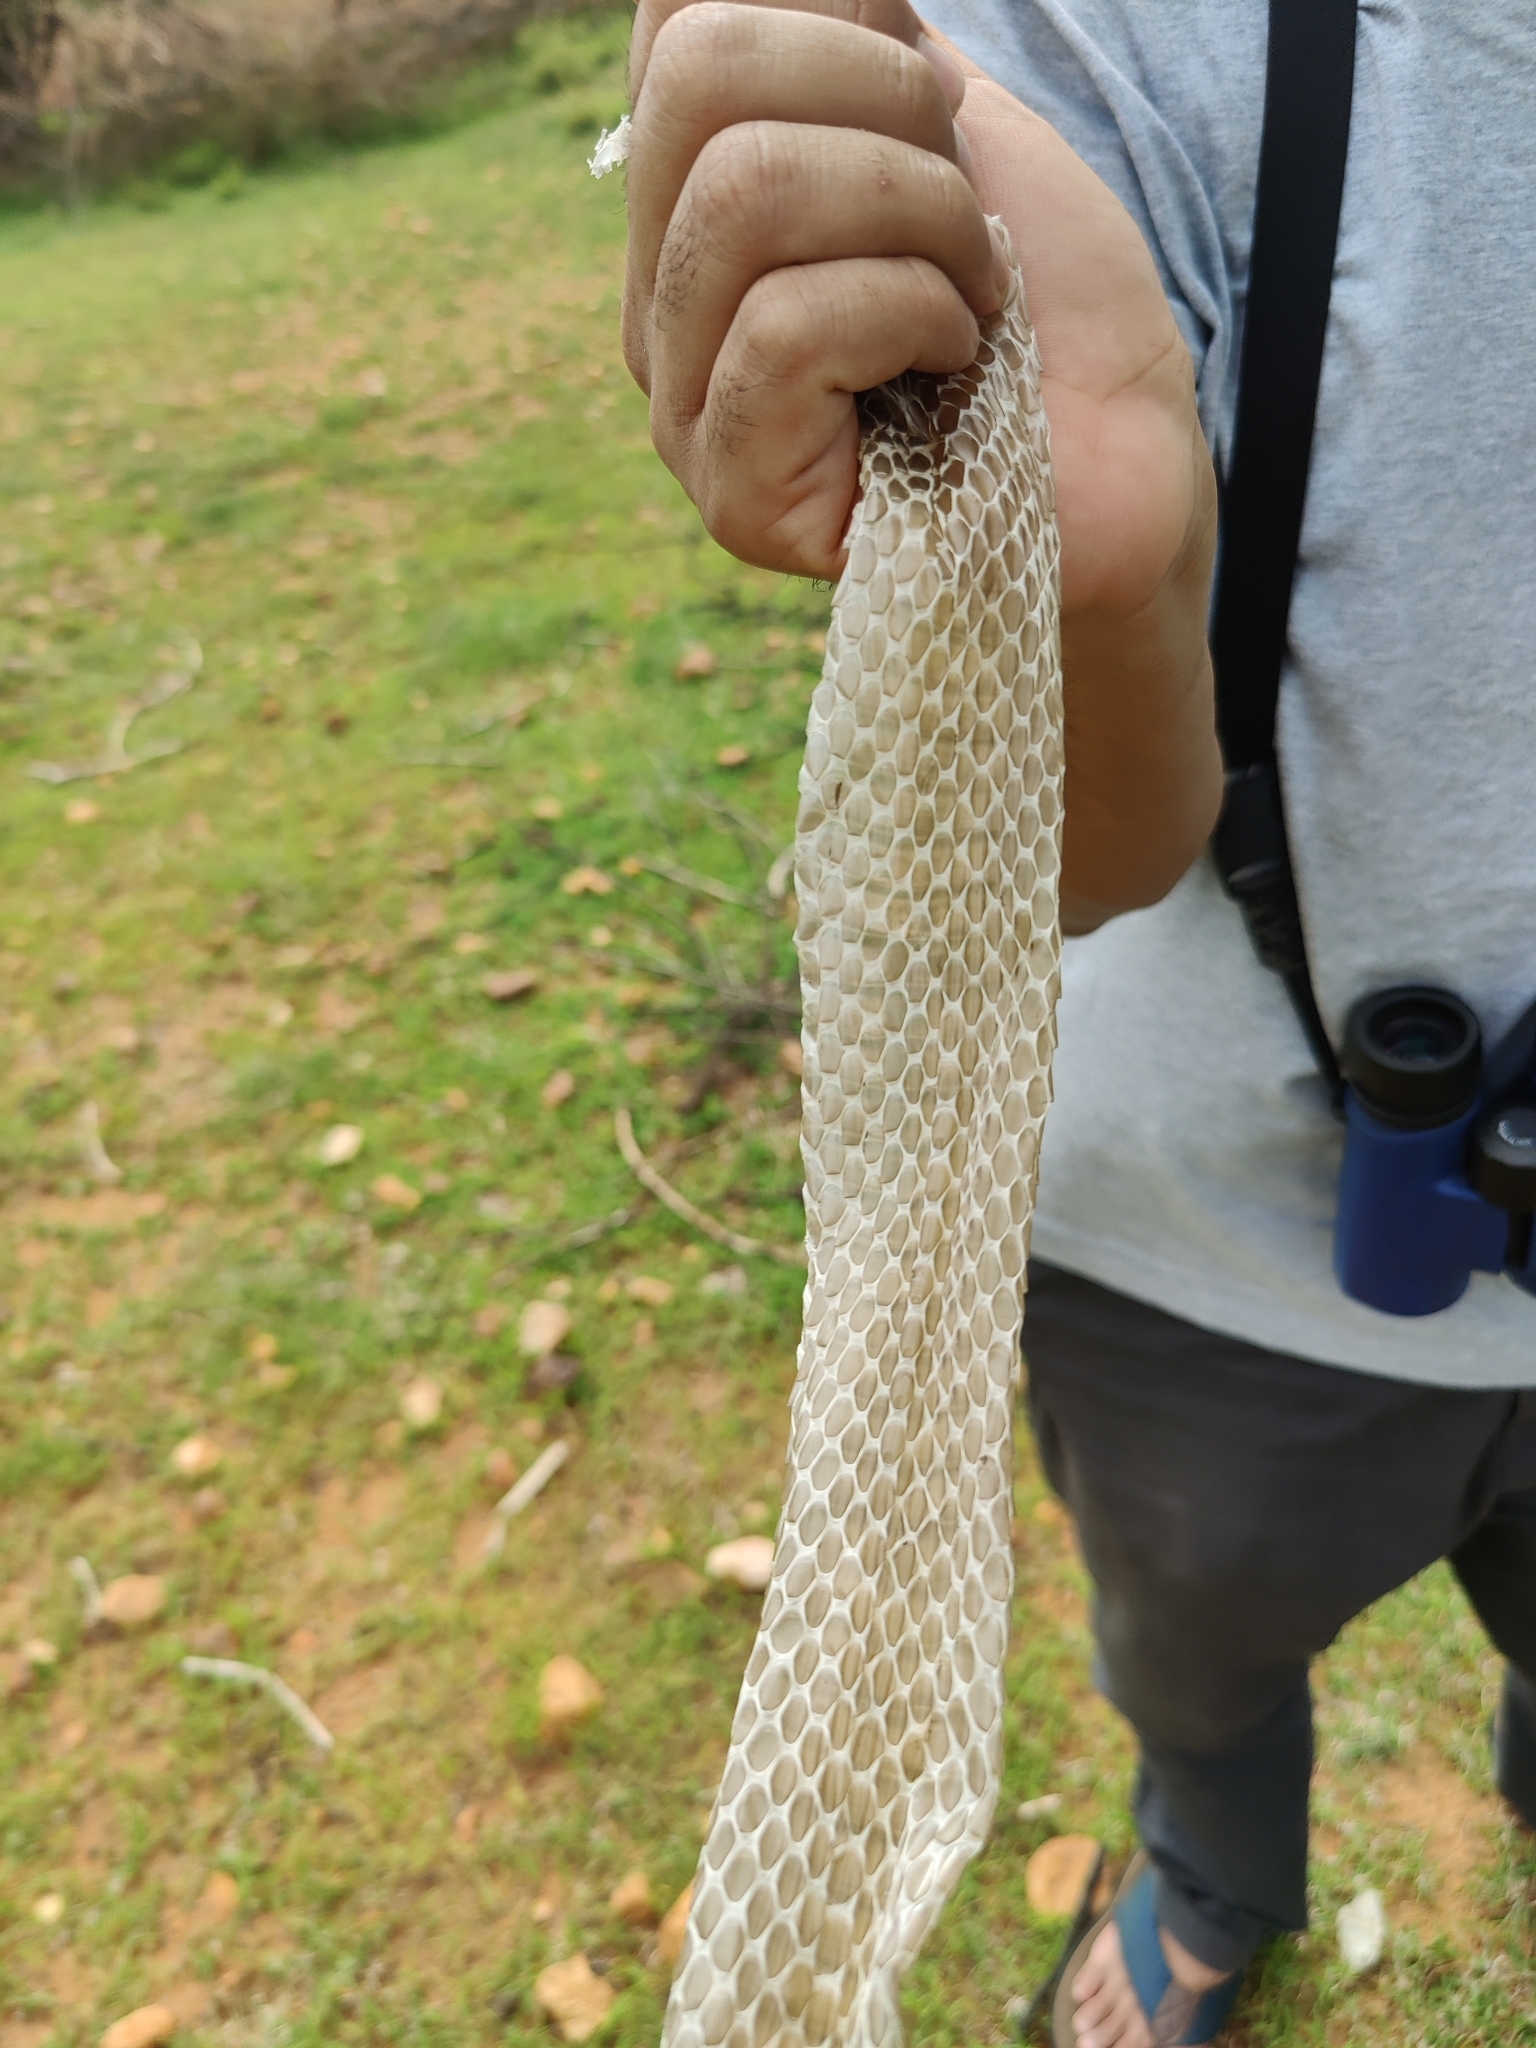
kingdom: Animalia
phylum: Chordata
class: Squamata
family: Colubridae
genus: Ptyas
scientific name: Ptyas mucosa
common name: Oriental ratsnake
